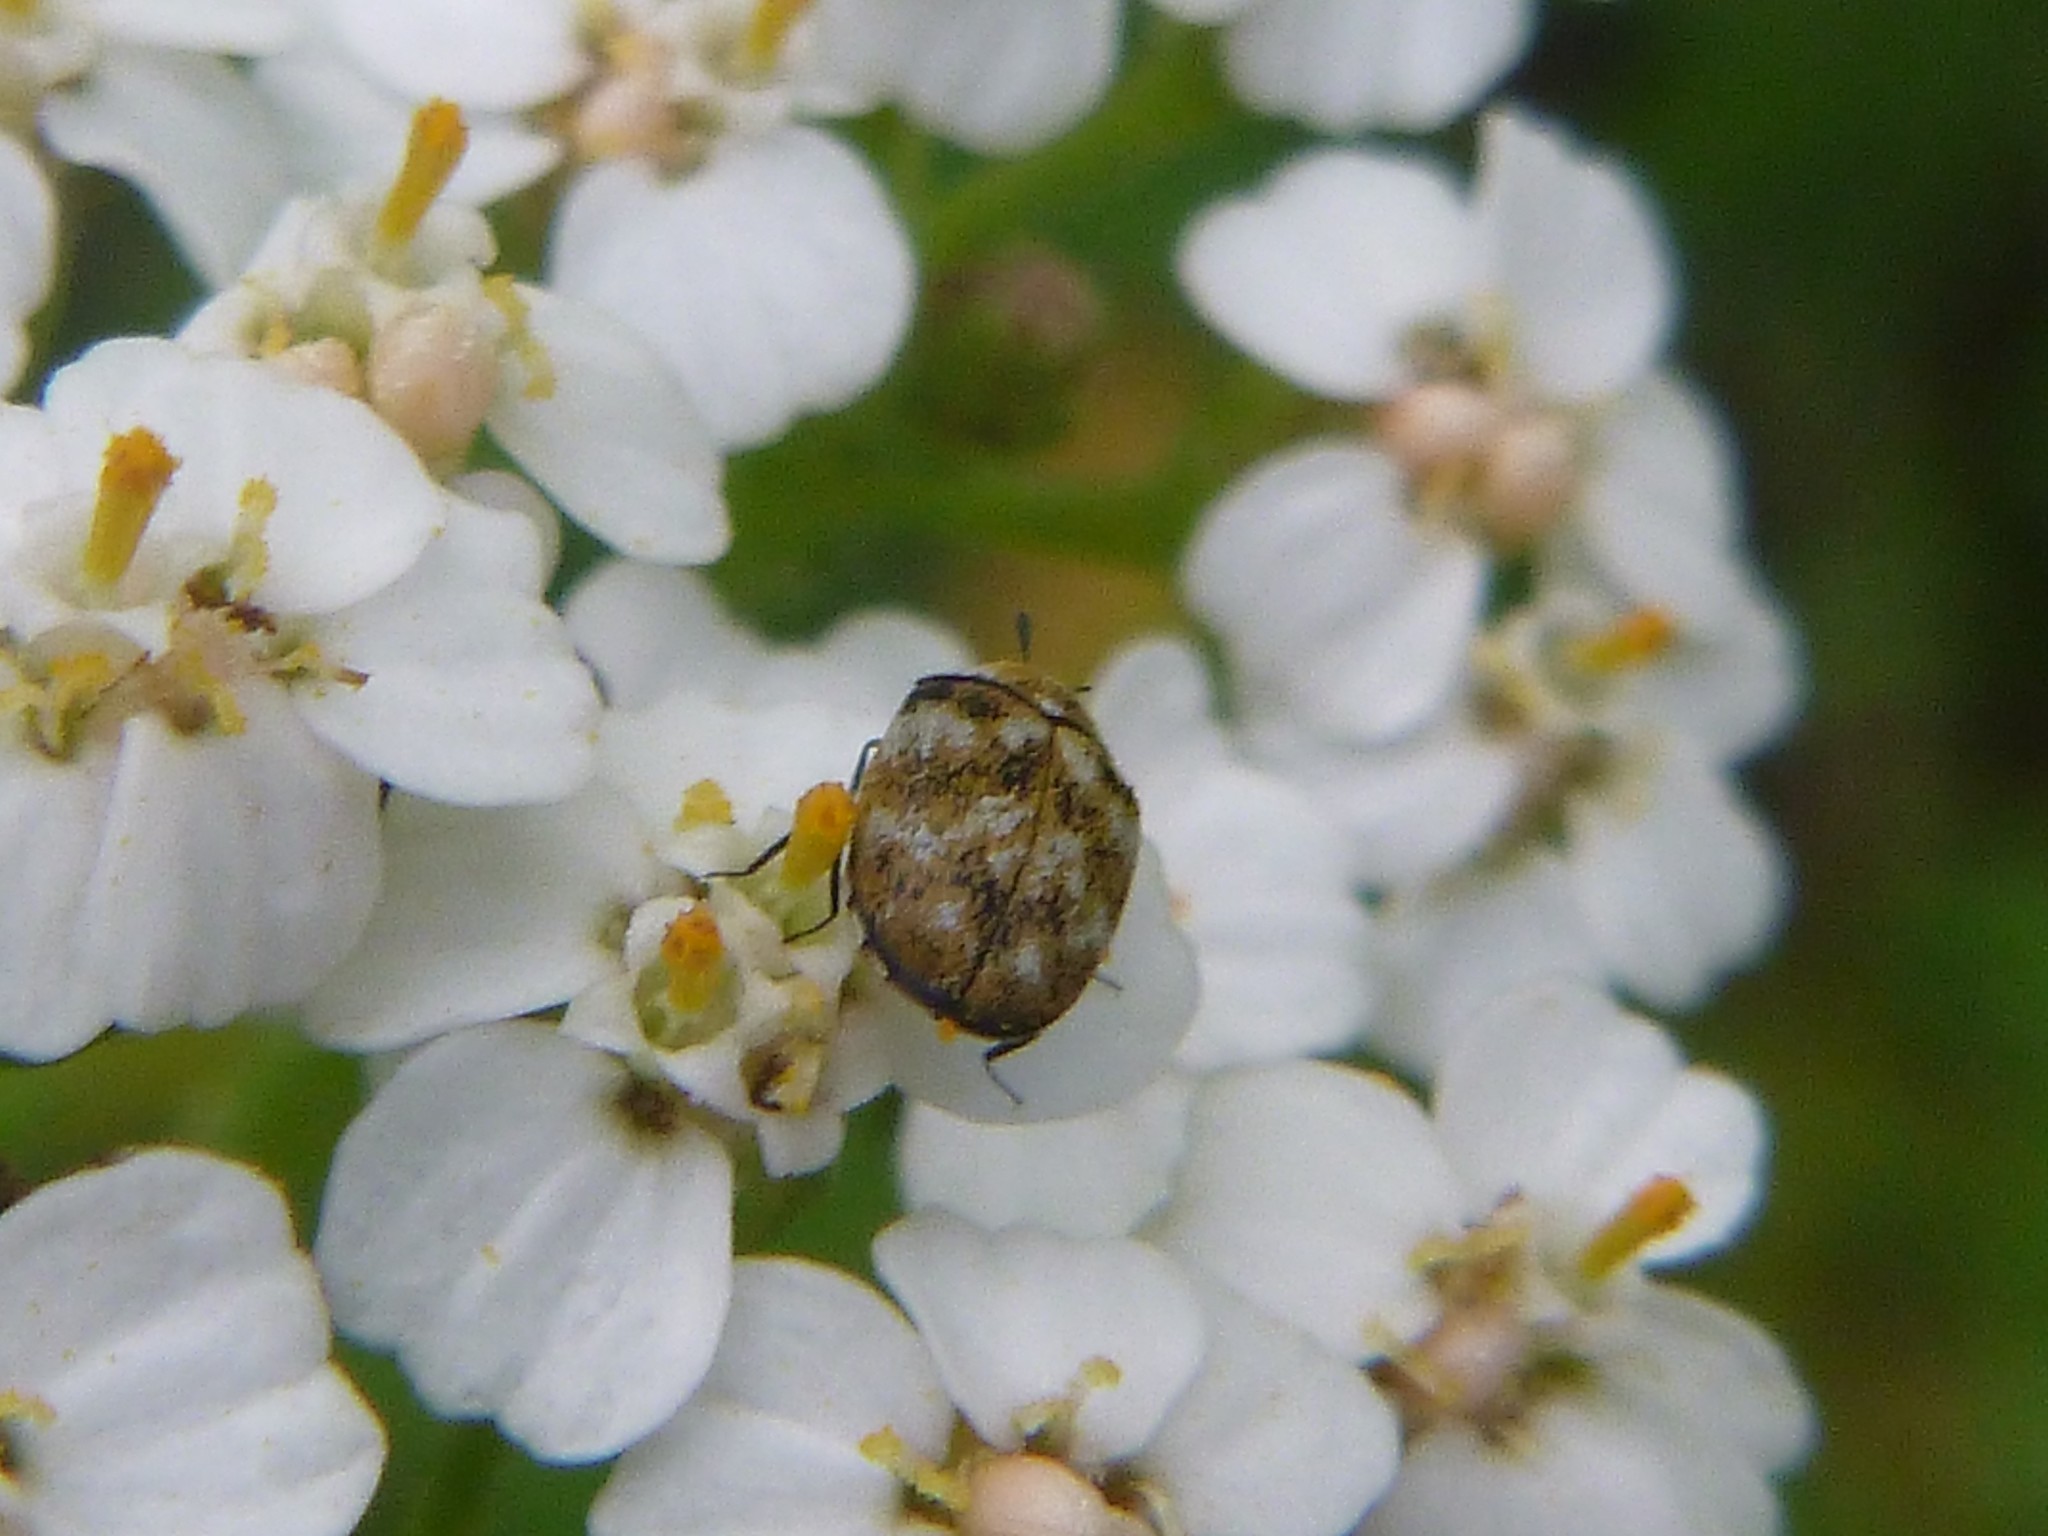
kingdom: Animalia
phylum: Arthropoda
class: Insecta
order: Coleoptera
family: Dermestidae
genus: Anthrenus
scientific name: Anthrenus verbasci
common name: Varied carpet beetle
